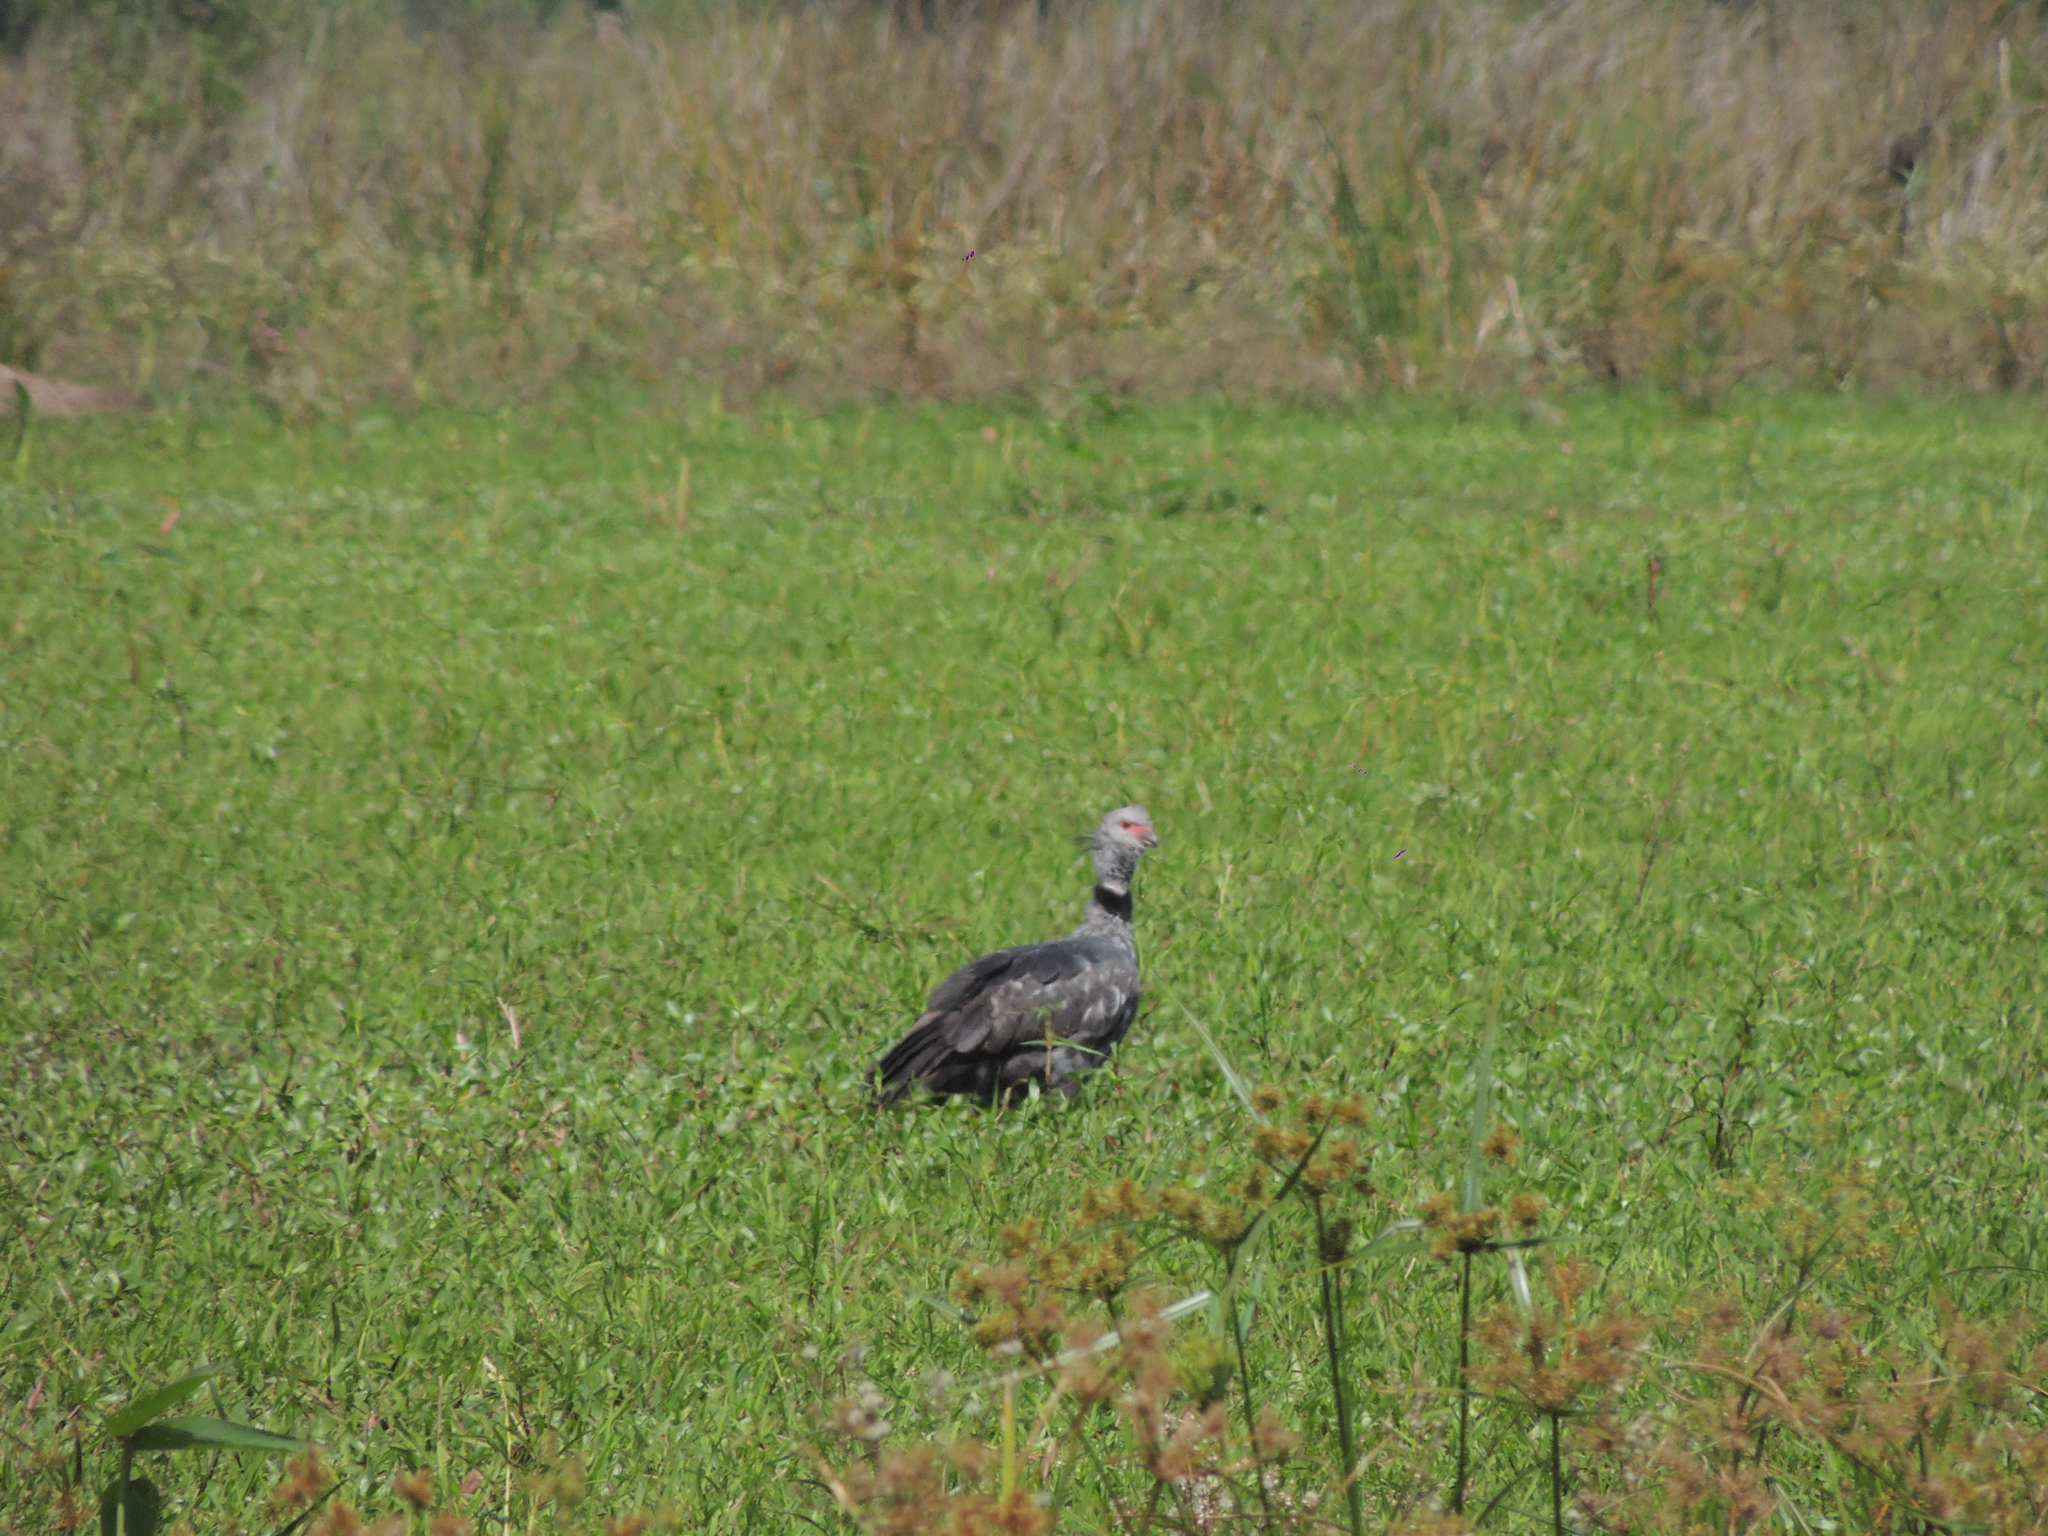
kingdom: Animalia
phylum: Chordata
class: Aves
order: Anseriformes
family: Anhimidae
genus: Chauna
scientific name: Chauna torquata
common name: Southern screamer
